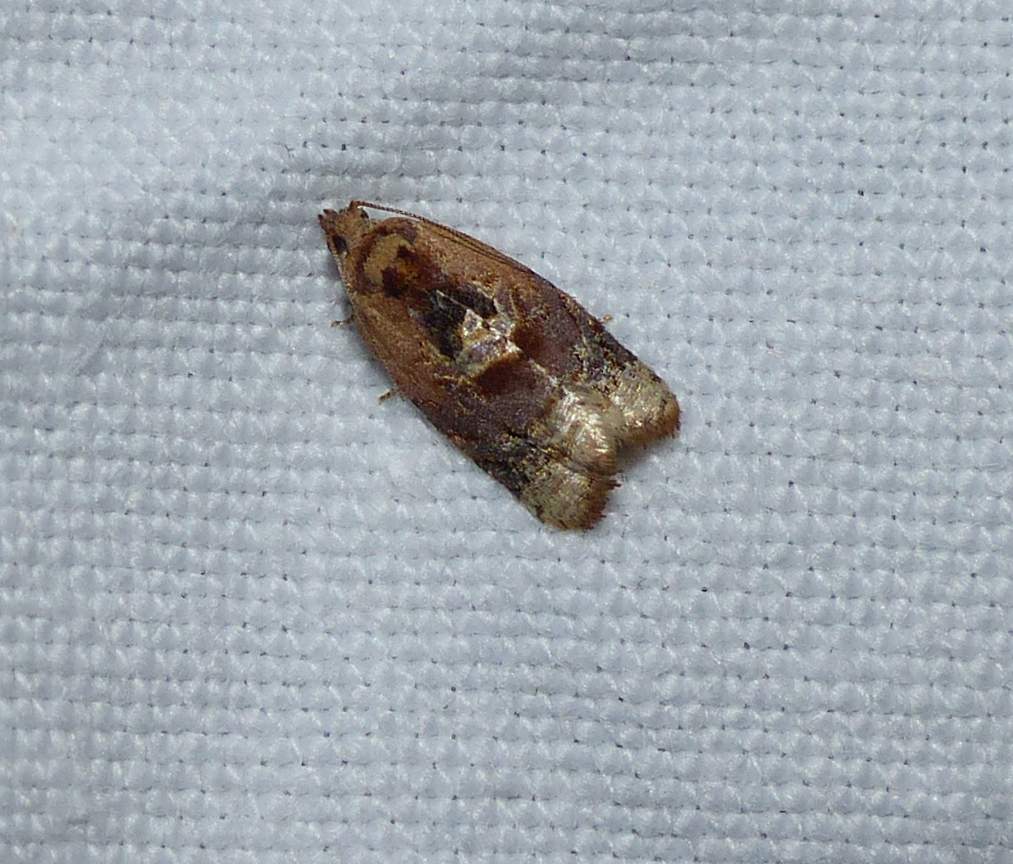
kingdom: Animalia
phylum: Arthropoda
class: Insecta
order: Lepidoptera
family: Tortricidae
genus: Argyrotaenia
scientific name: Argyrotaenia velutinana
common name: Red-banded leafroller moth
